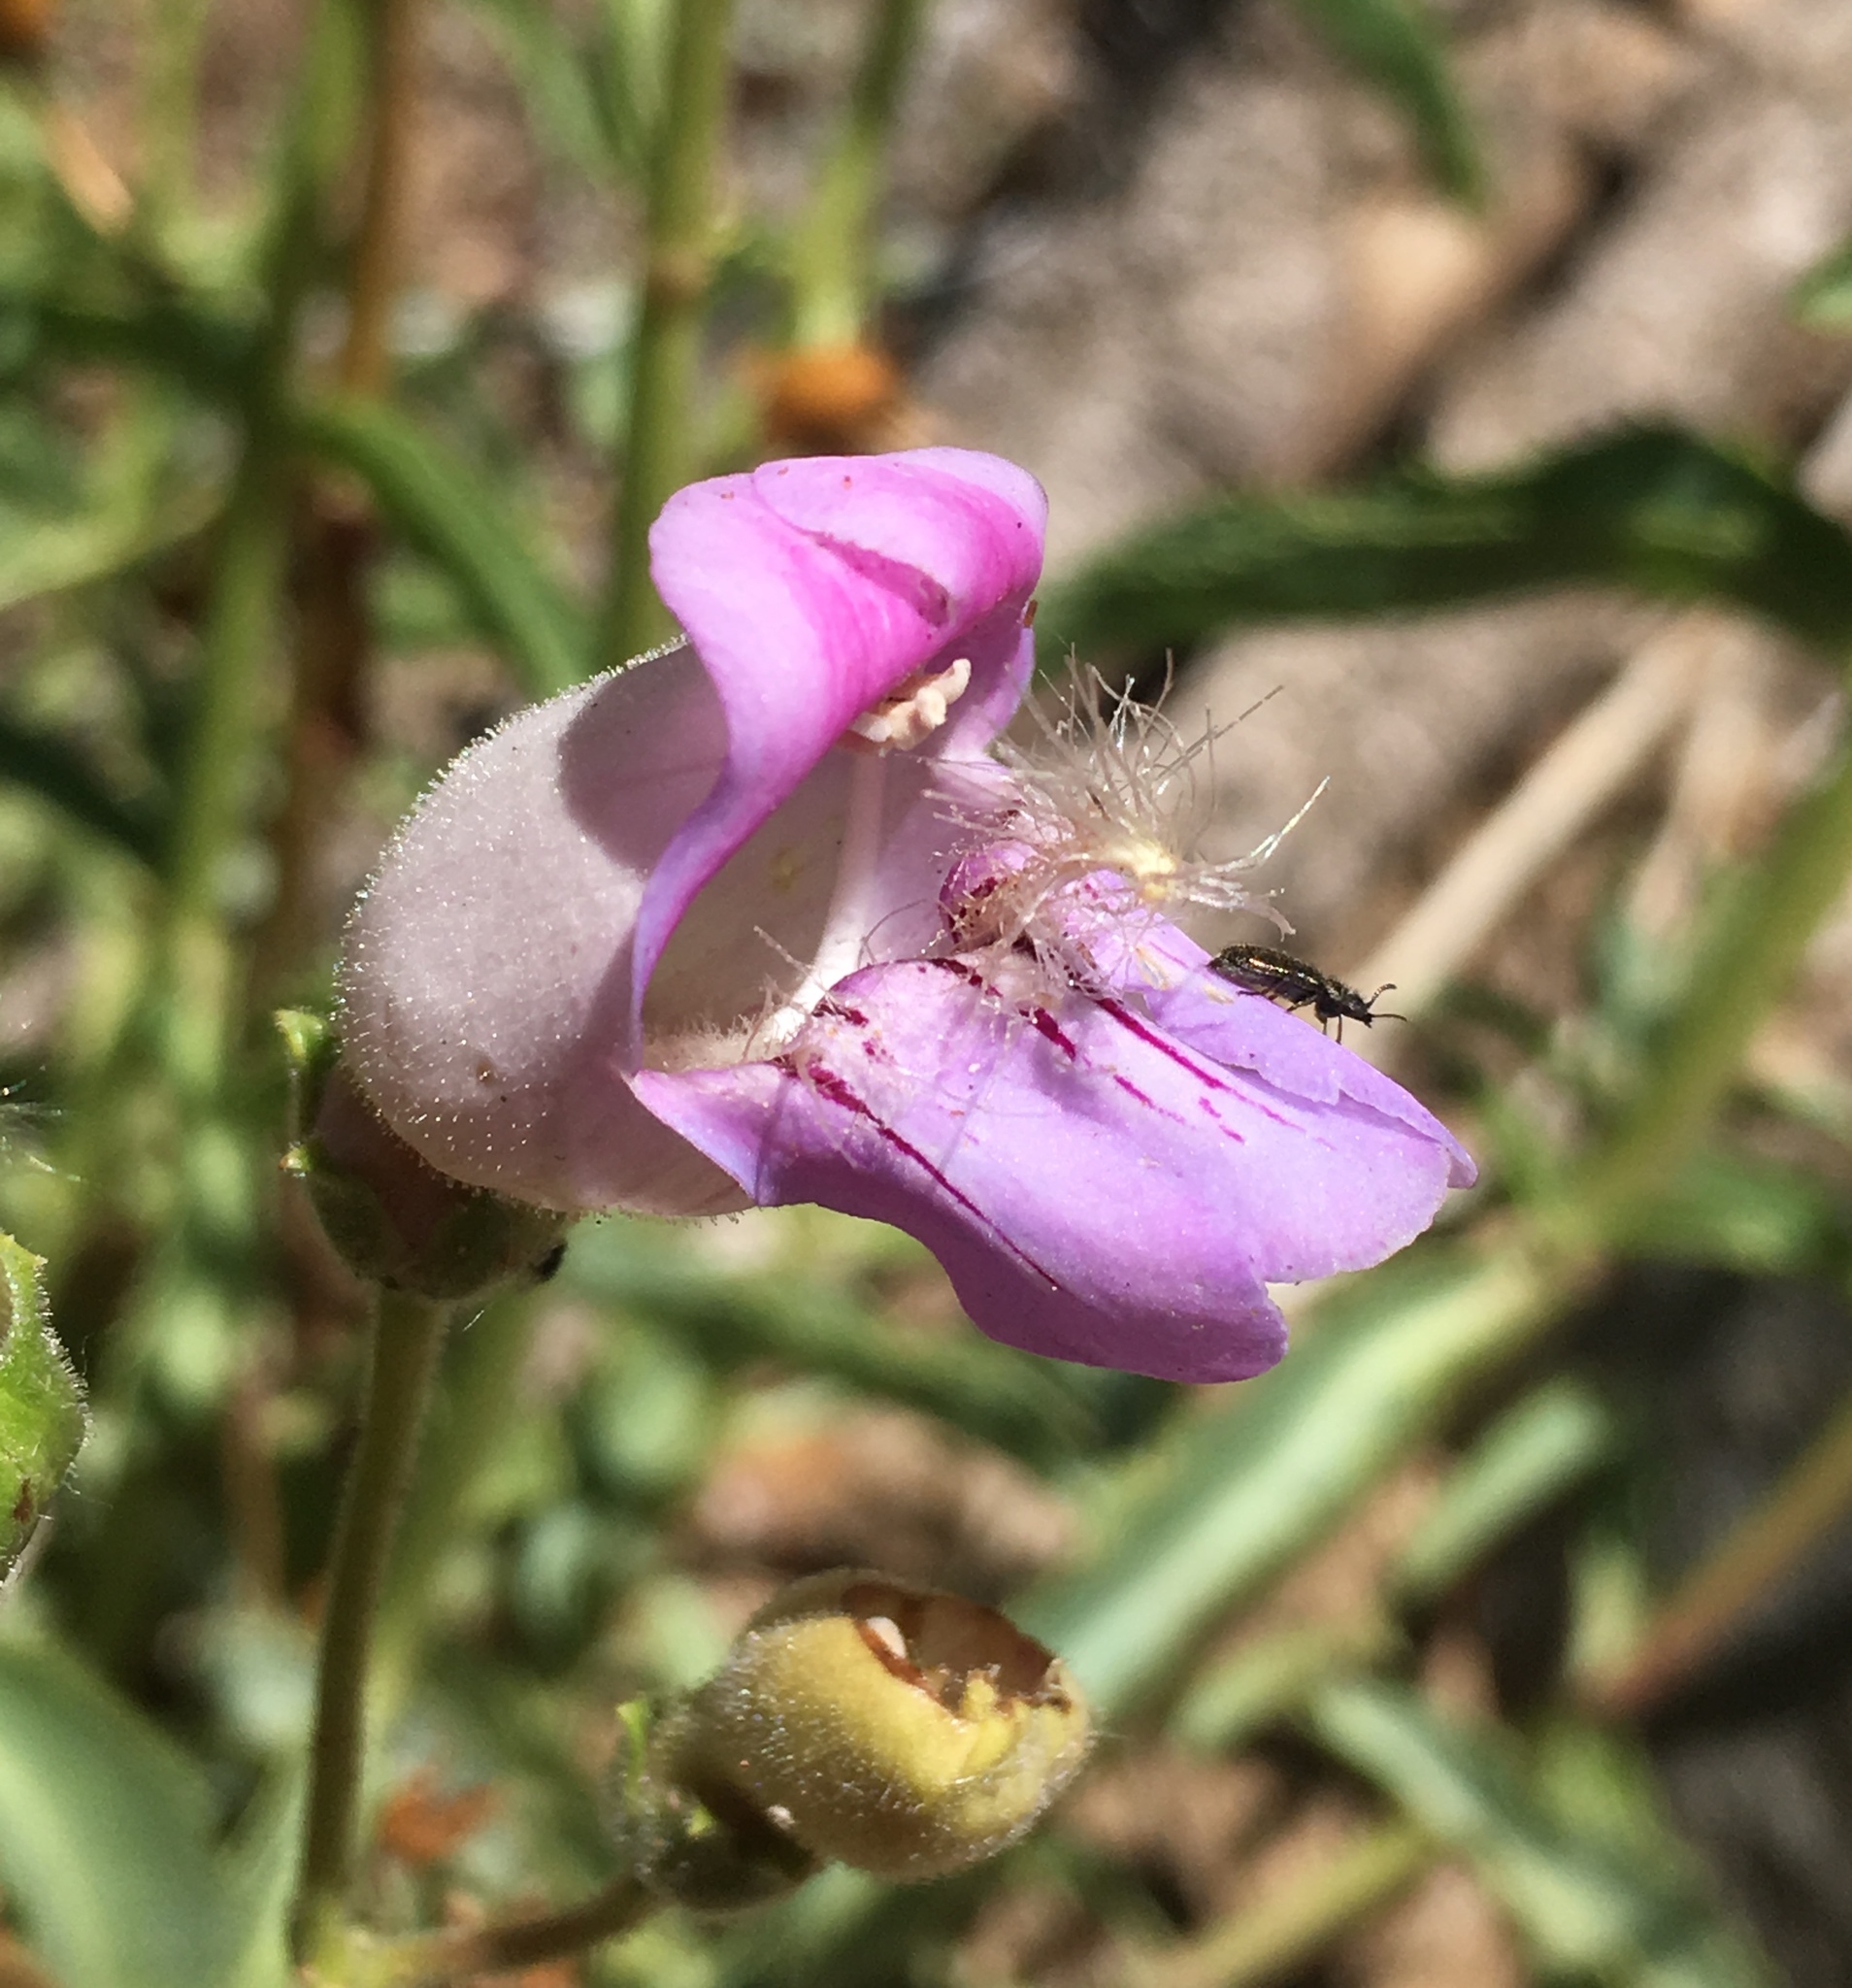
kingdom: Plantae
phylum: Tracheophyta
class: Magnoliopsida
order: Lamiales
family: Plantaginaceae
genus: Penstemon
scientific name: Penstemon grinnellii
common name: Grinnell's beardtongue
